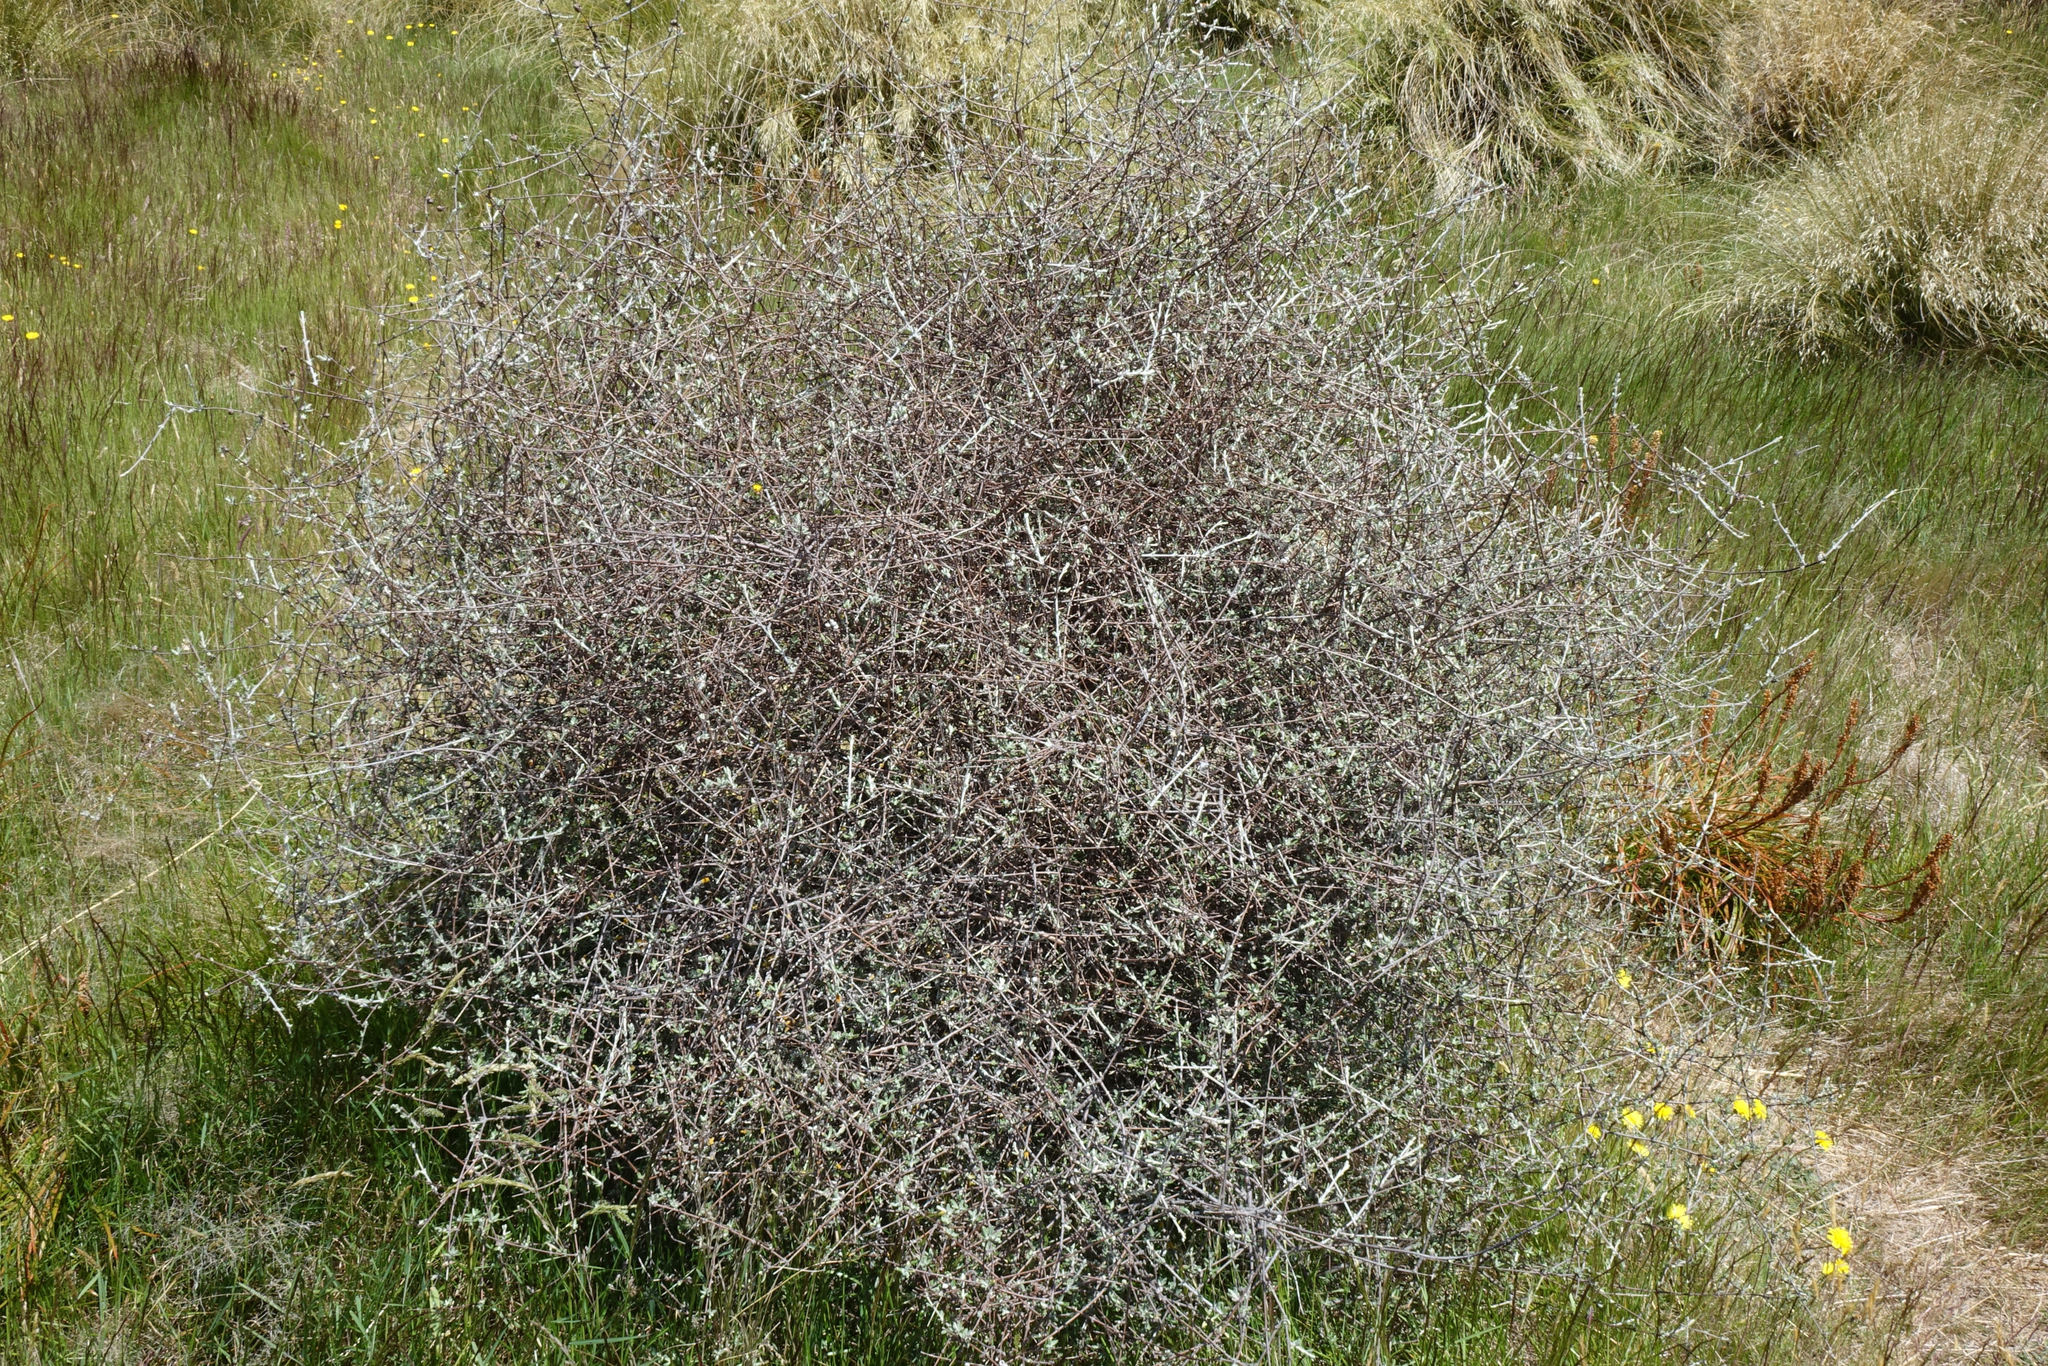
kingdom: Plantae
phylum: Tracheophyta
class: Magnoliopsida
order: Asterales
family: Asteraceae
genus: Olearia
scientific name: Olearia bullata
